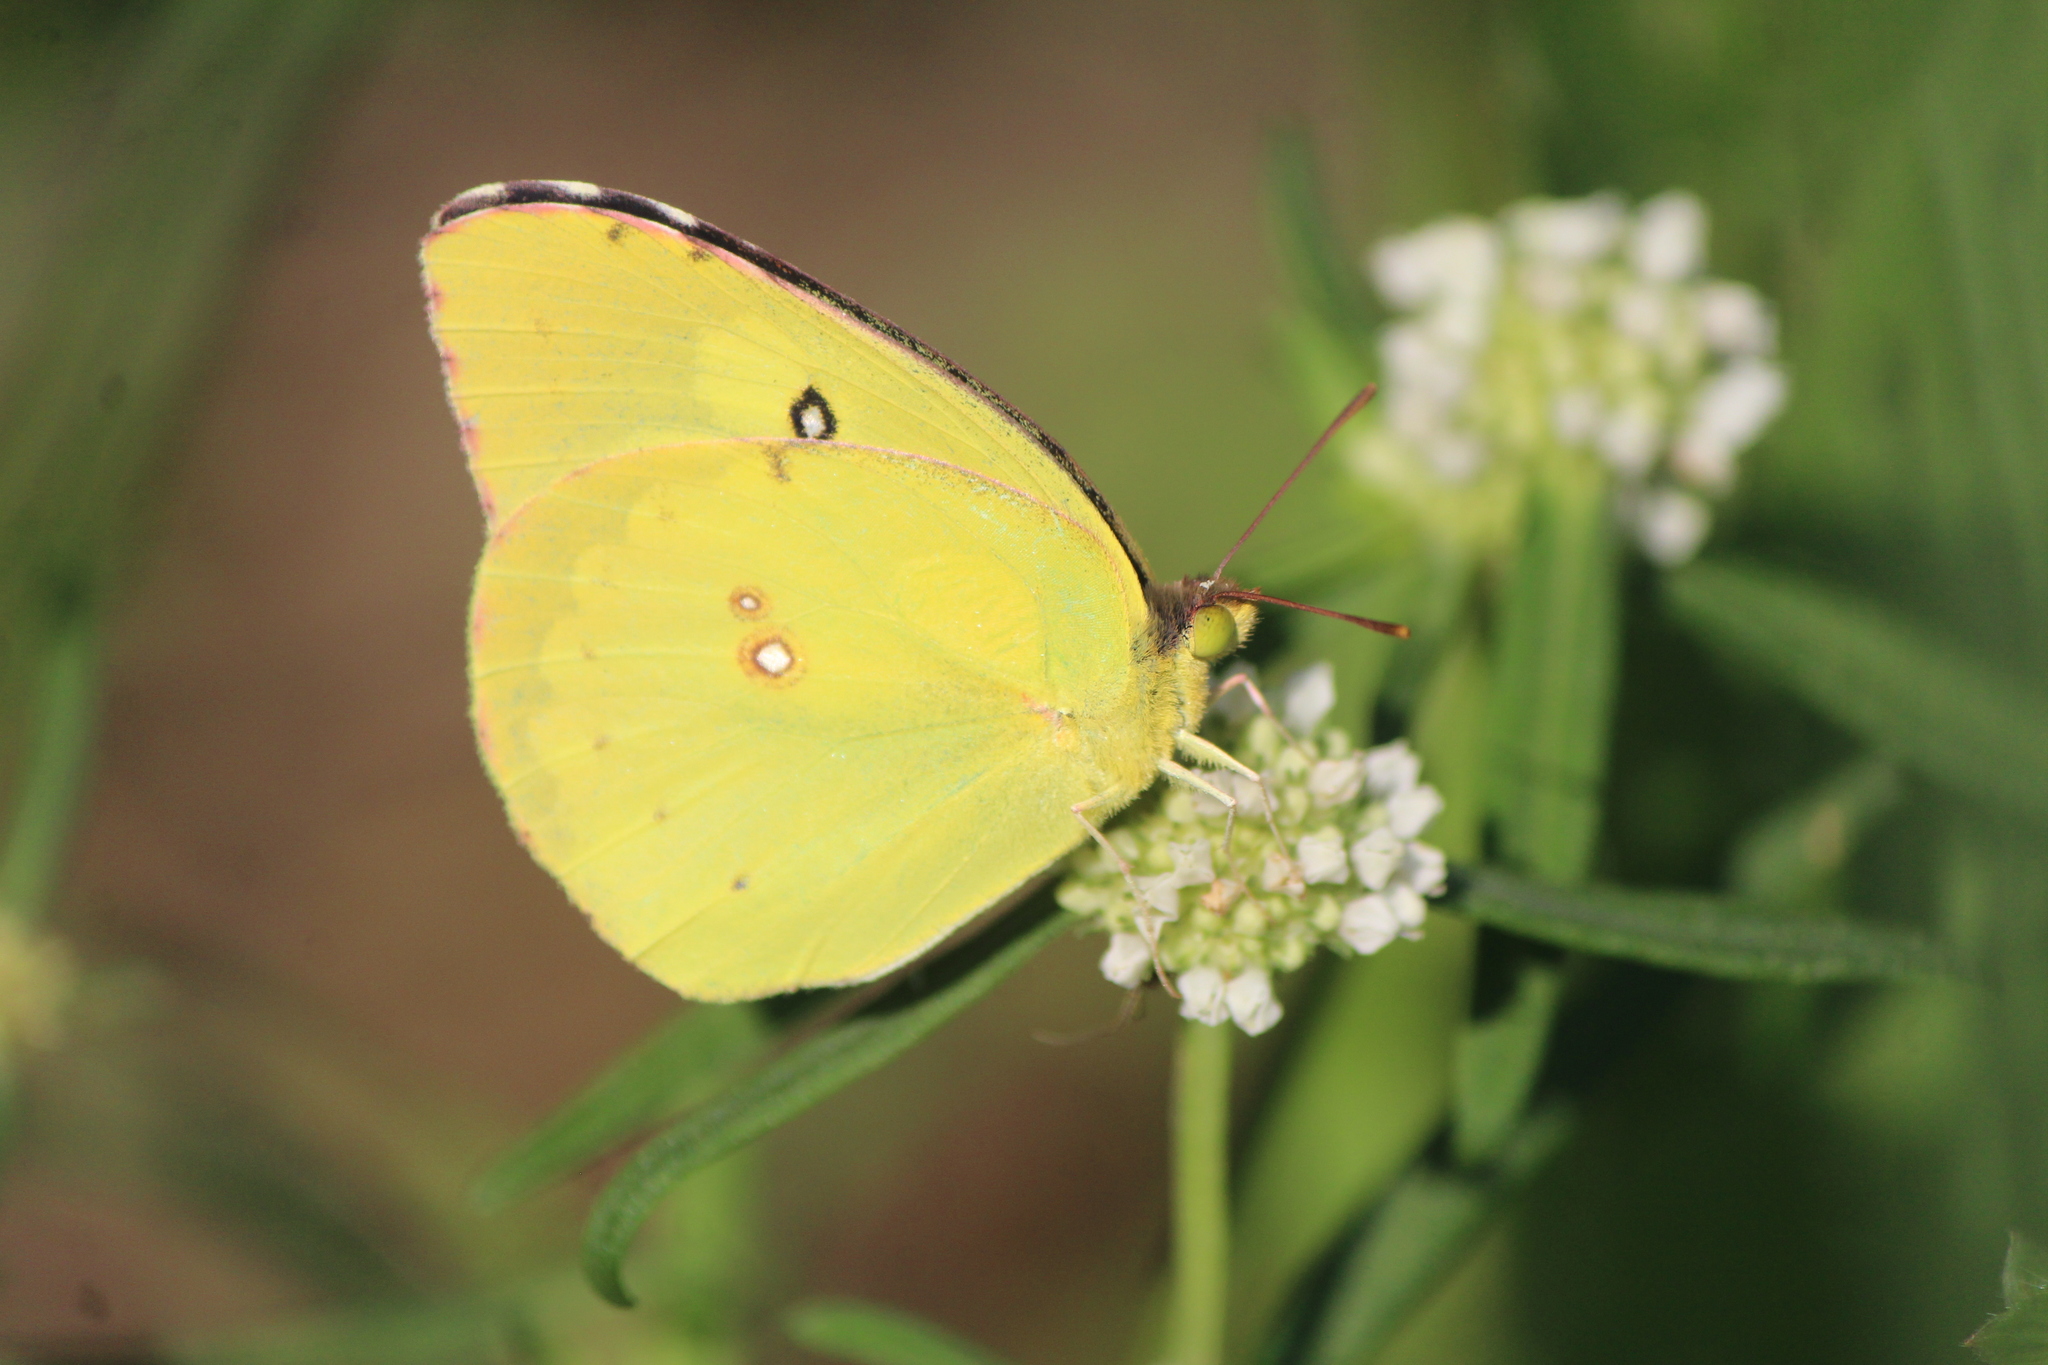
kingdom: Animalia
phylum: Arthropoda
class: Insecta
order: Lepidoptera
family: Pieridae
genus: Zerene
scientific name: Zerene cesonia
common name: Southern dogface
